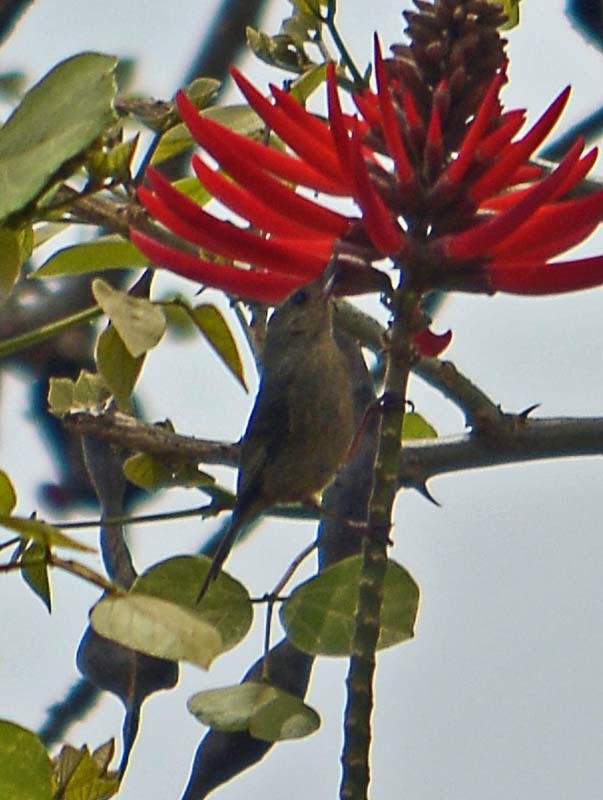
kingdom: Animalia
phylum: Chordata
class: Aves
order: Passeriformes
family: Thraupidae
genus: Diglossa
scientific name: Diglossa baritula
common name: Cinnamon-bellied flowerpiercer
